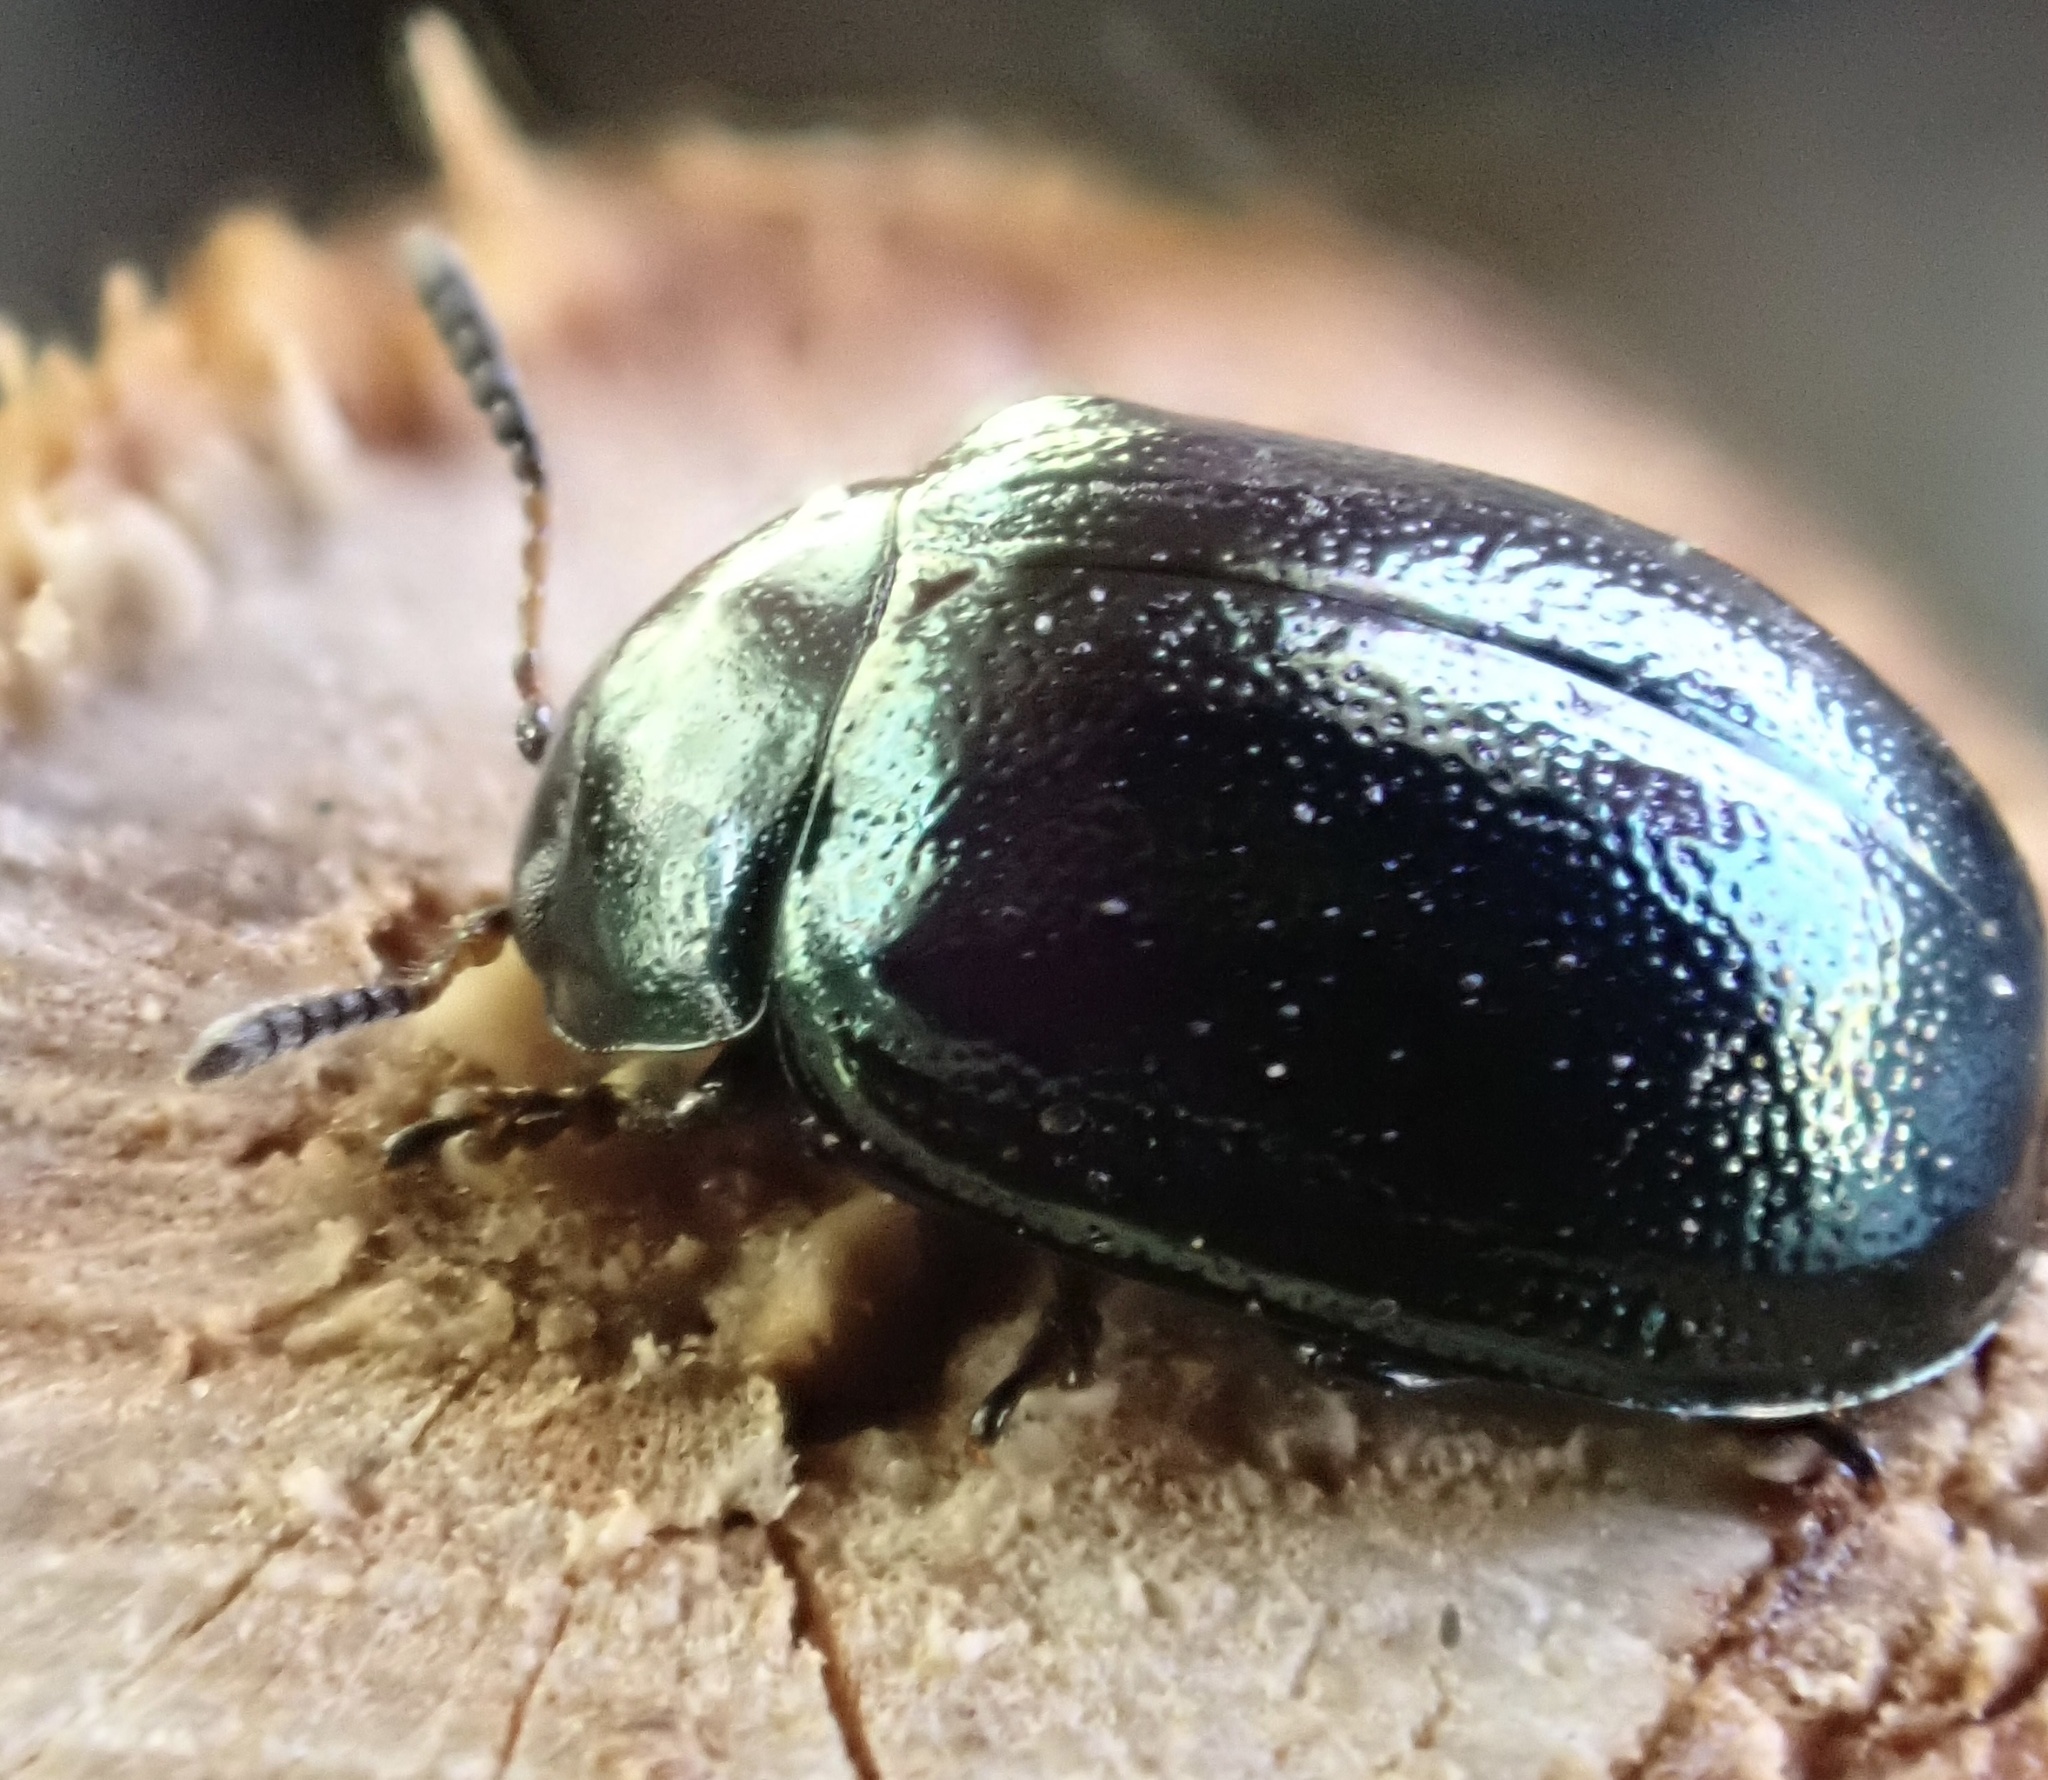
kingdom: Animalia
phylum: Arthropoda
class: Insecta
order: Coleoptera
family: Chrysomelidae
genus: Plagiodera
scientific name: Plagiodera versicolora
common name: Imported willow leaf beetle
